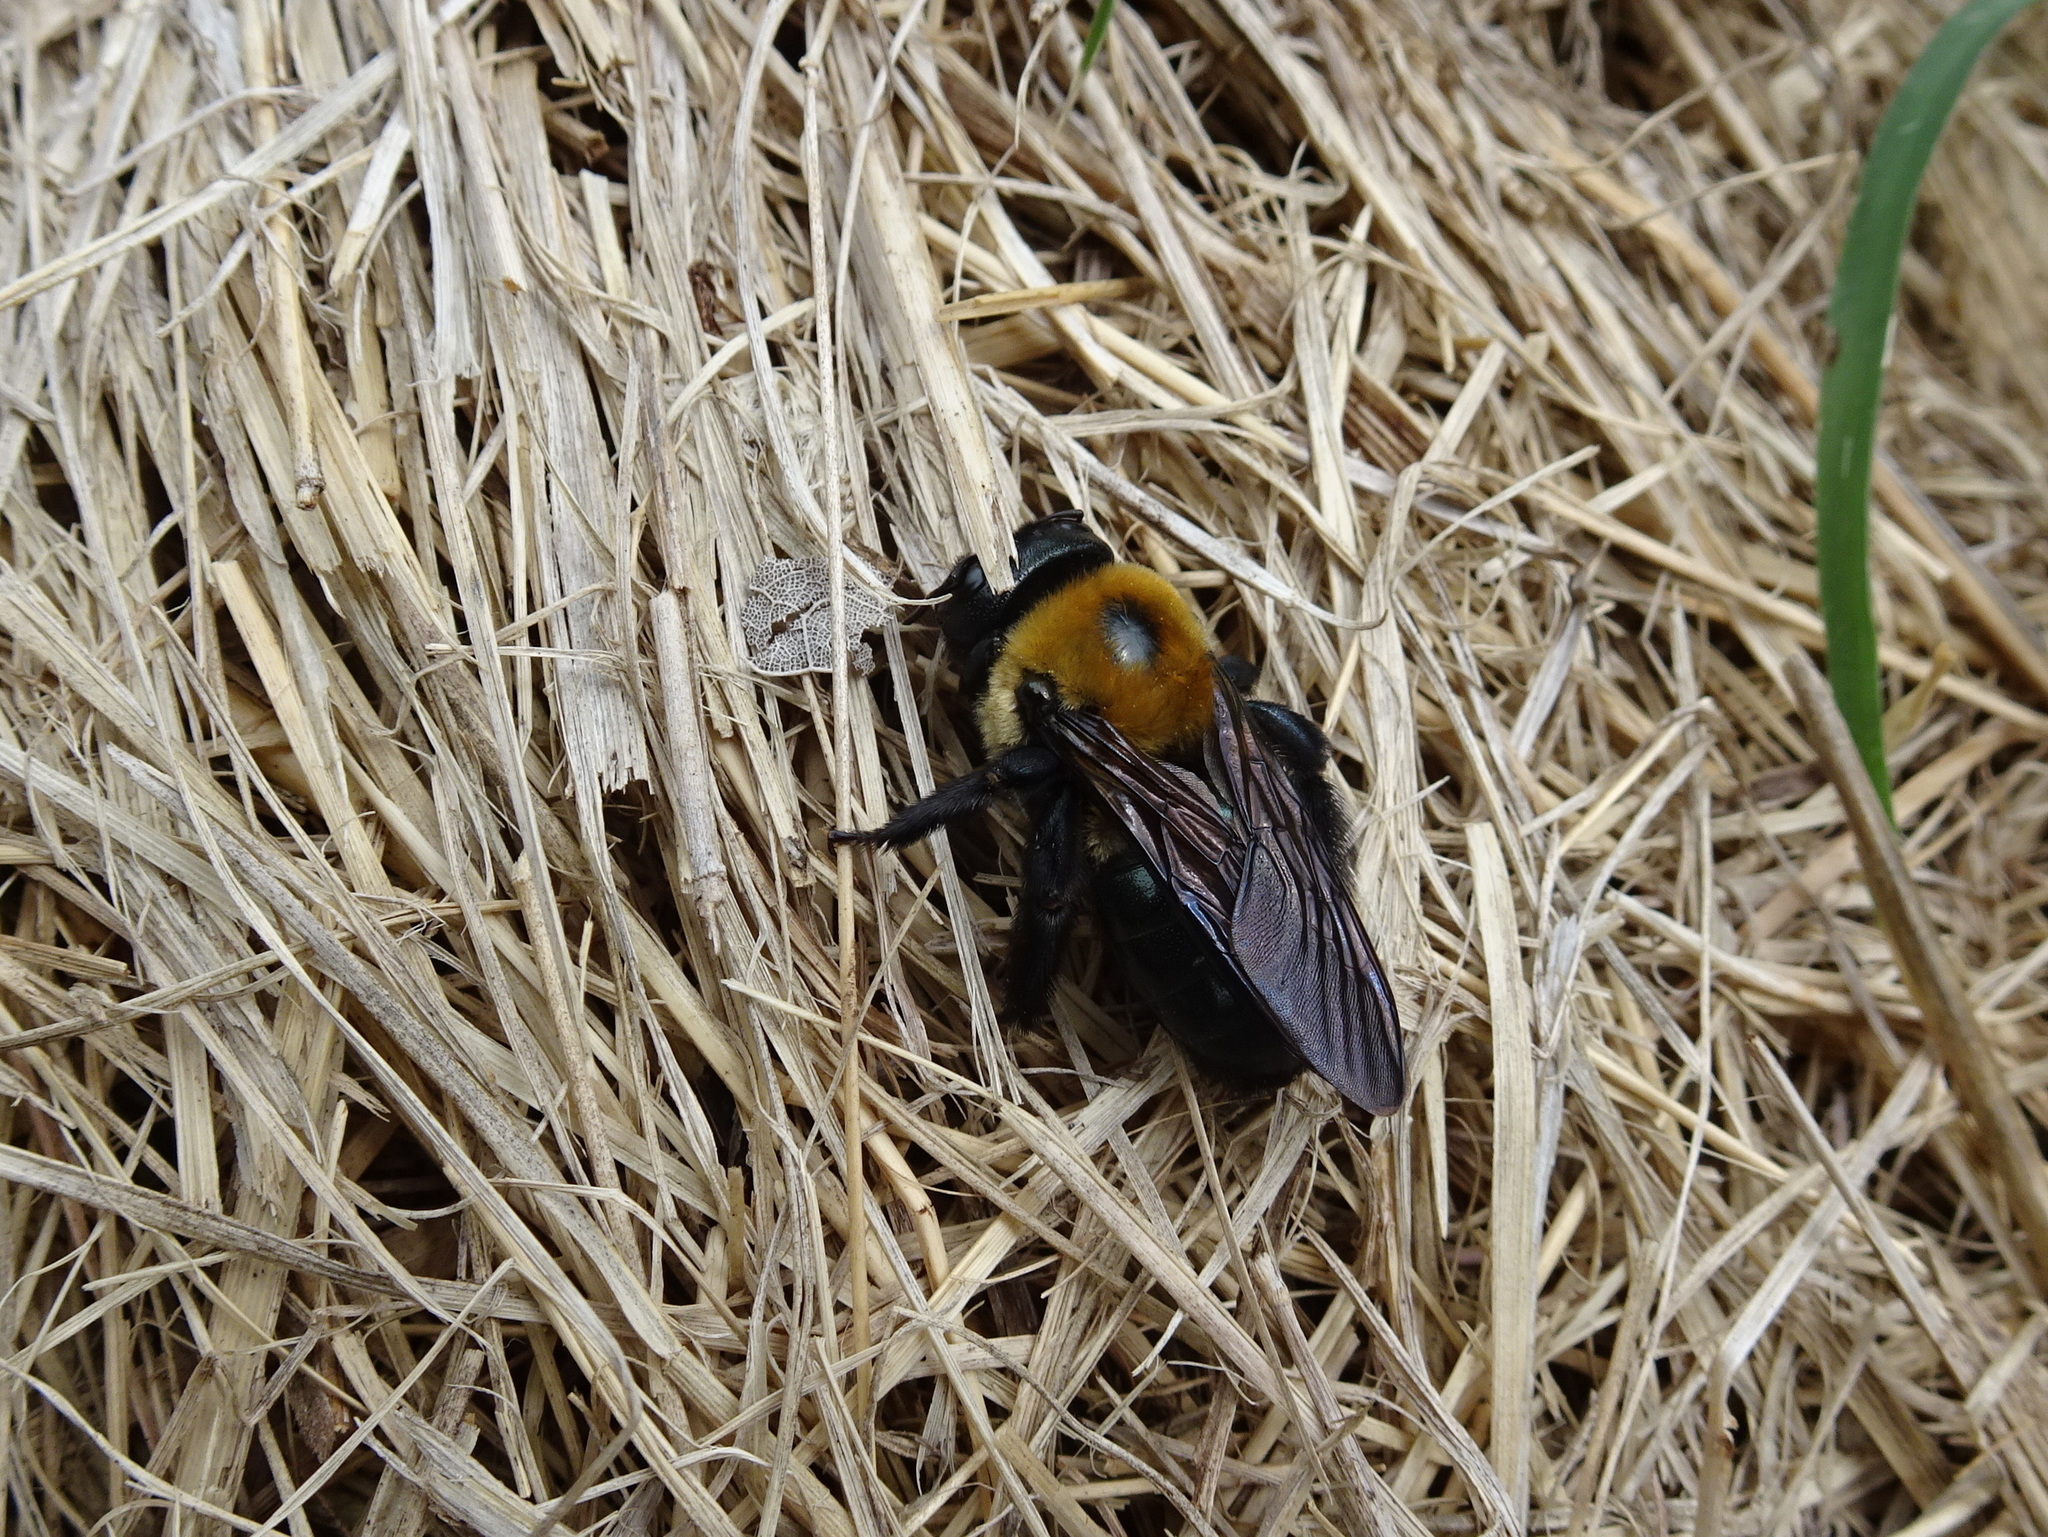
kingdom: Animalia
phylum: Arthropoda
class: Insecta
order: Hymenoptera
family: Apidae
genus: Xylocopa
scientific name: Xylocopa virginica
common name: Carpenter bee
